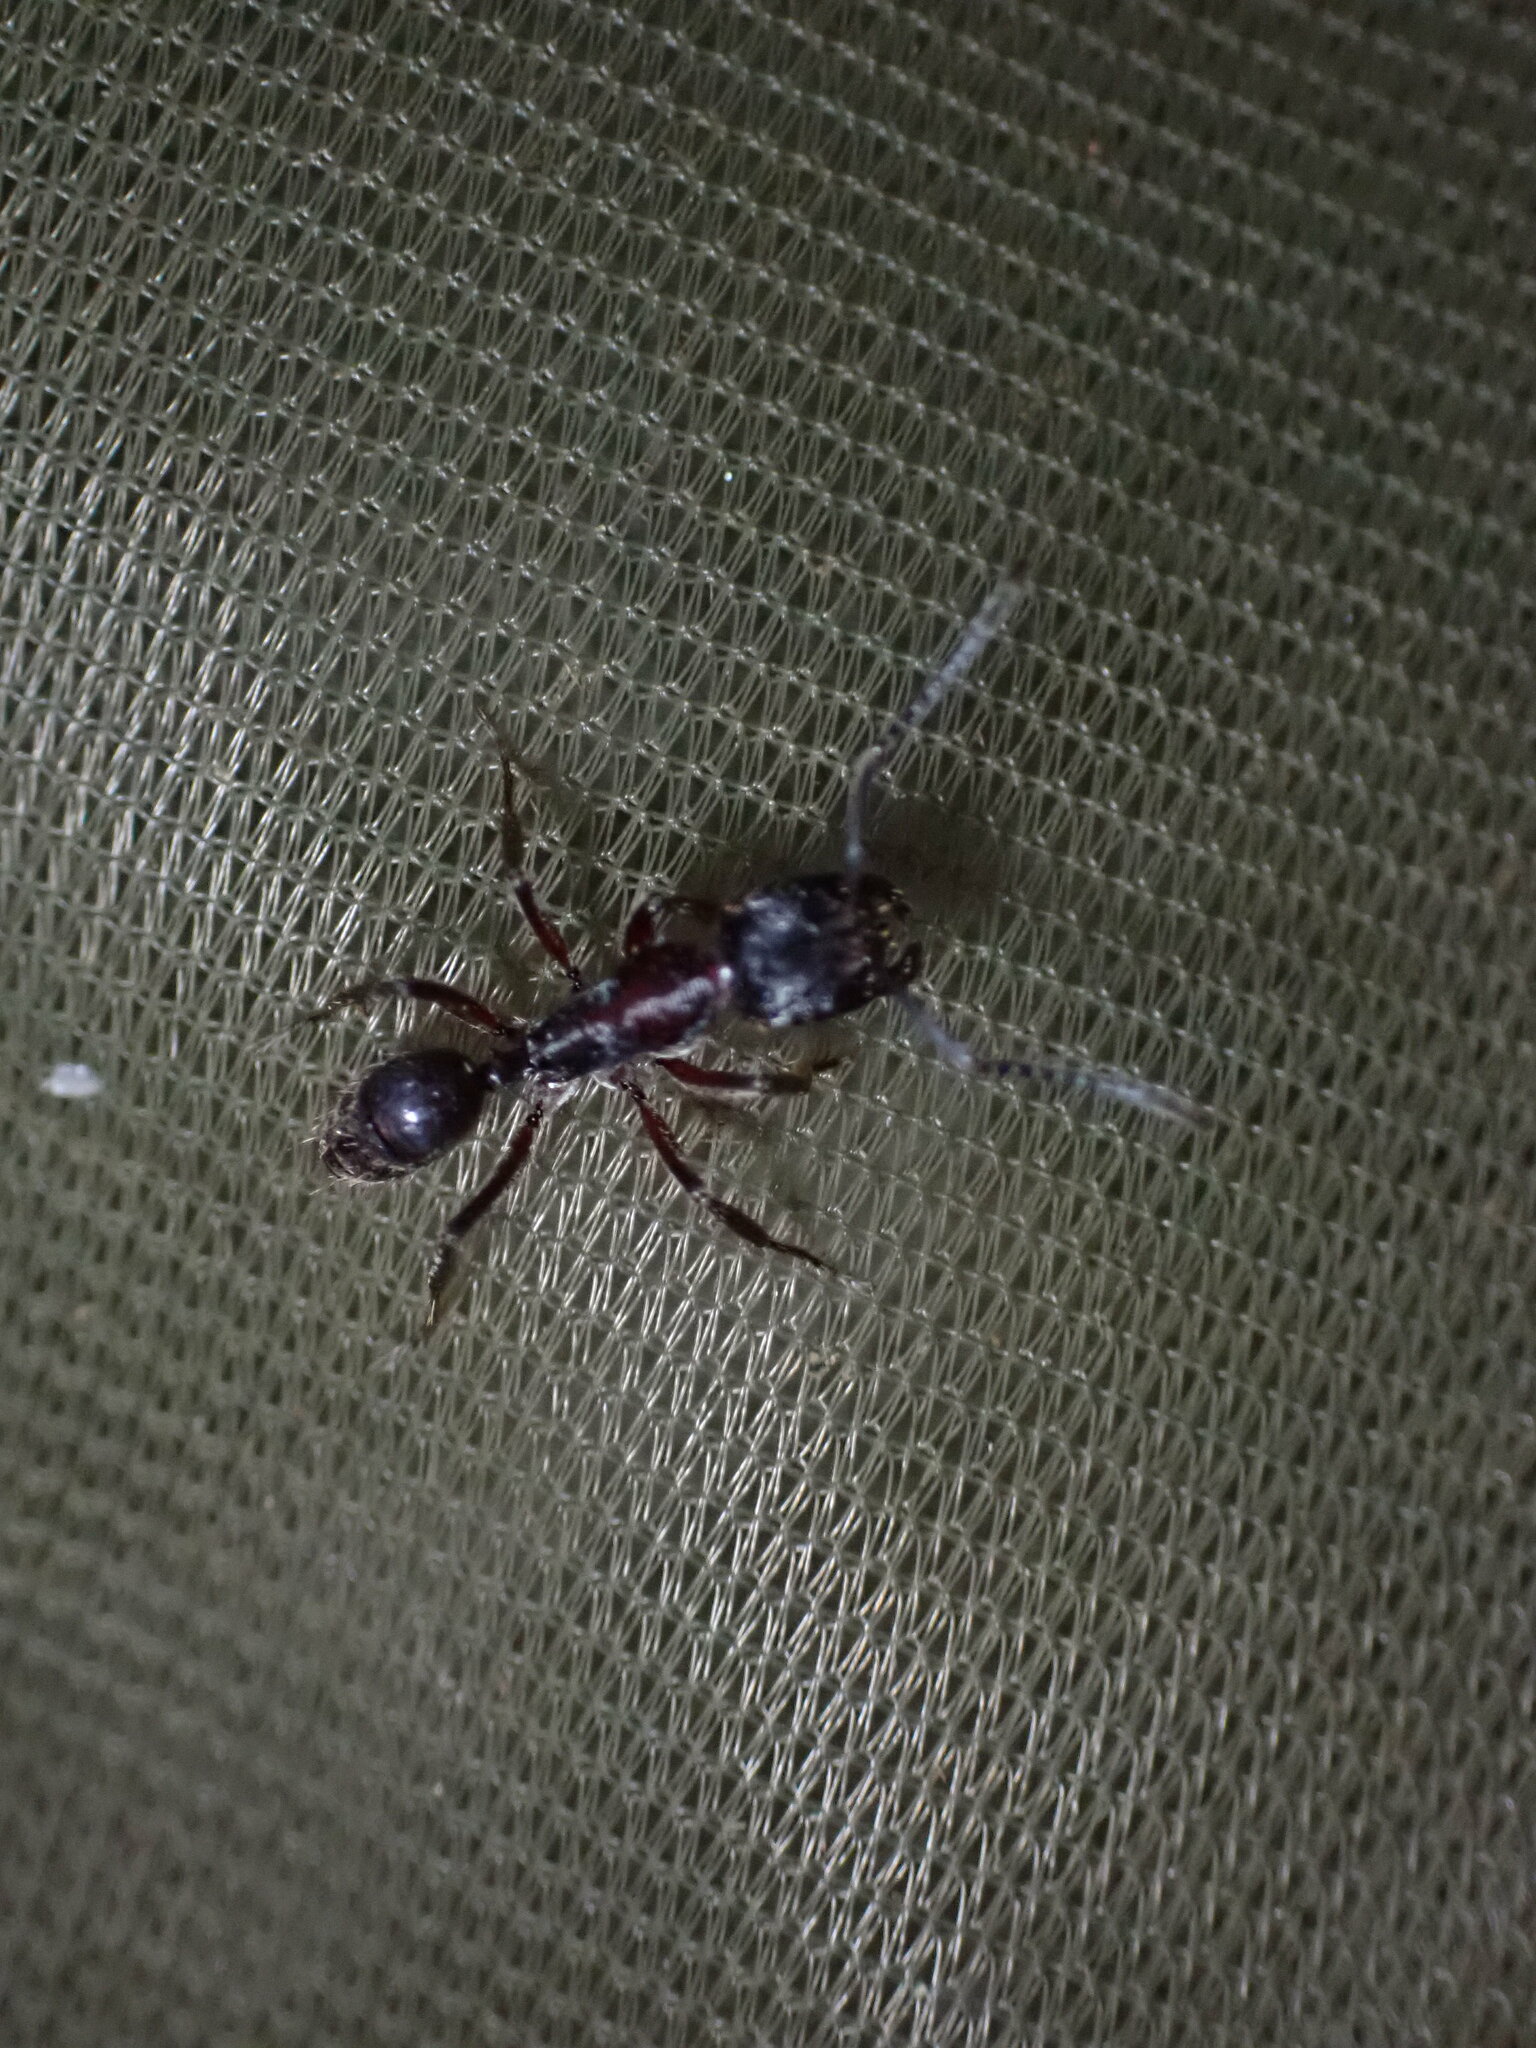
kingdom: Animalia
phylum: Arthropoda
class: Insecta
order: Hymenoptera
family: Formicidae
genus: Odontoponera
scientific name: Odontoponera transversa
